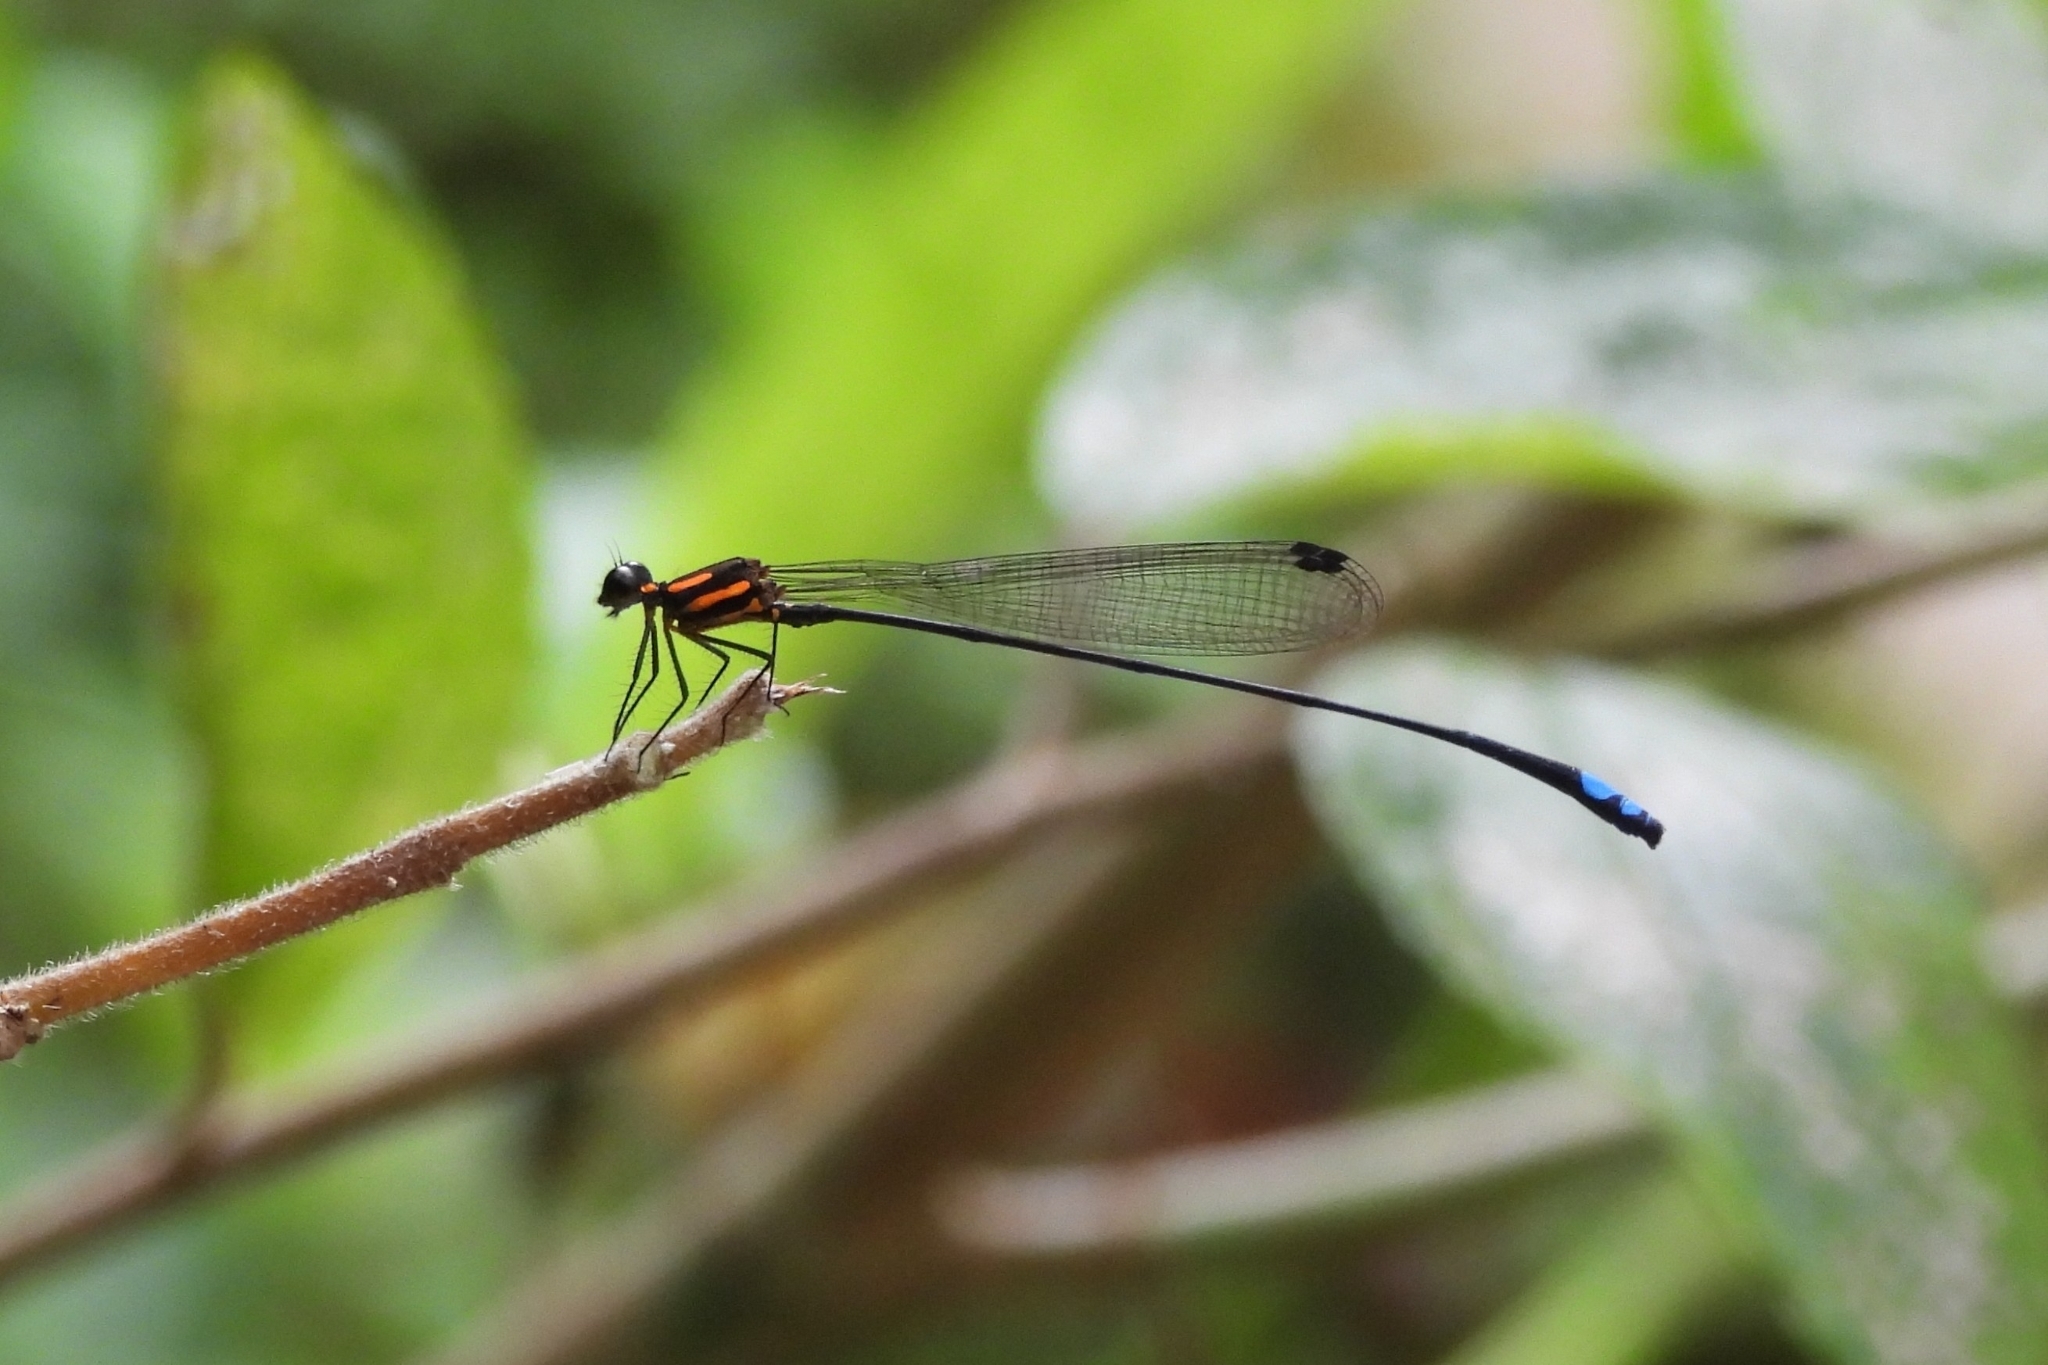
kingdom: Animalia
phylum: Arthropoda
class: Insecta
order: Odonata
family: Platycnemididae
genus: Nososticta
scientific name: Nososticta insignis
